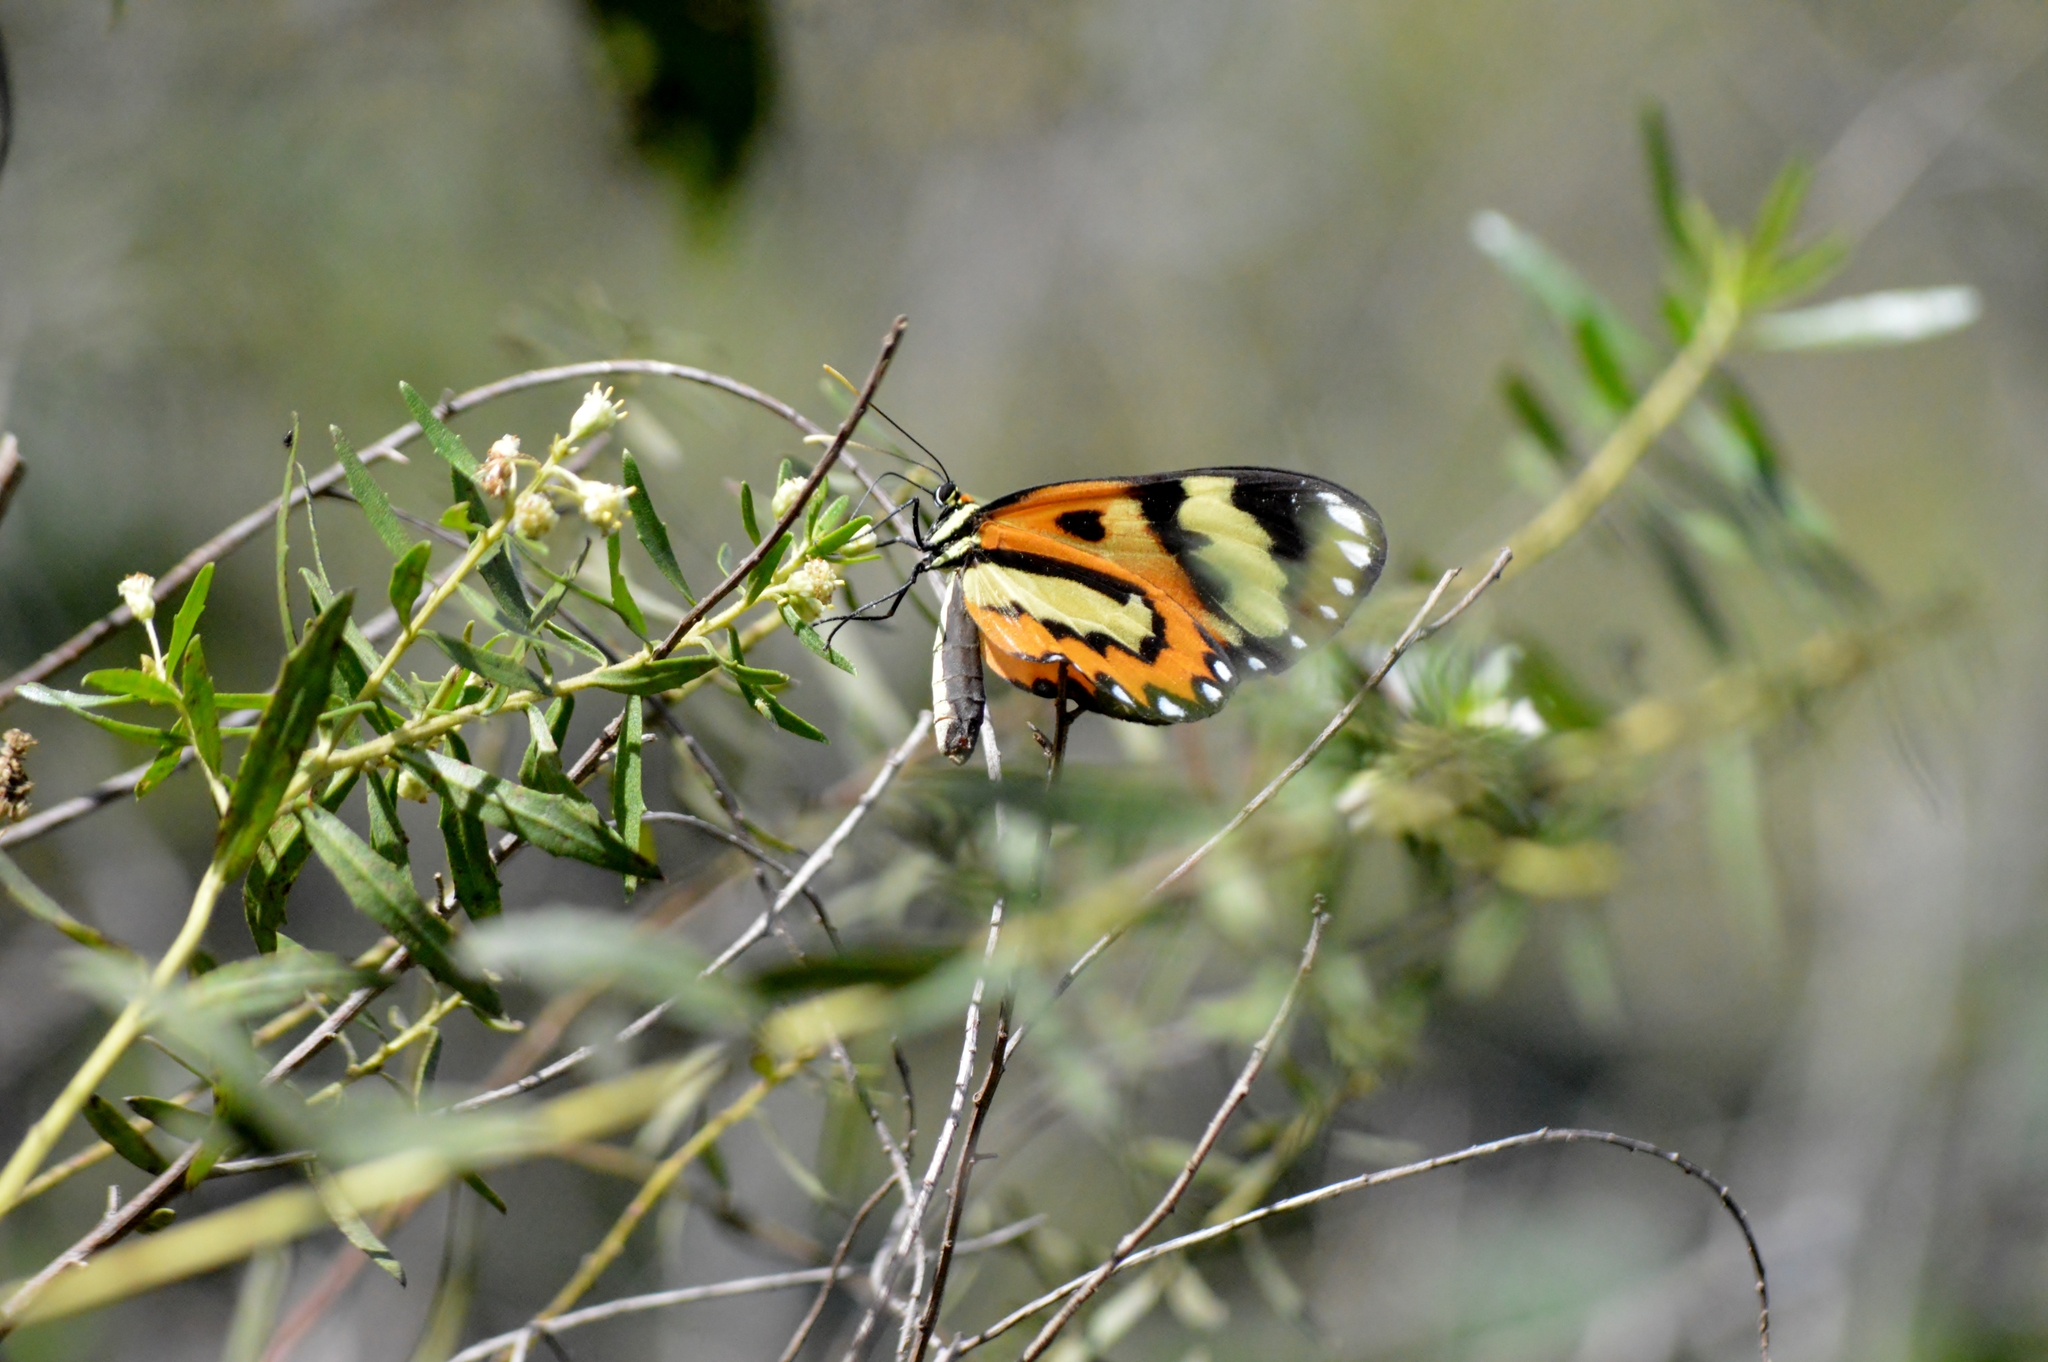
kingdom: Animalia
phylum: Arthropoda
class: Insecta
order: Lepidoptera
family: Nymphalidae
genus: Mechanitis
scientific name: Mechanitis lysimnia
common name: Lysimnia tigerwing
